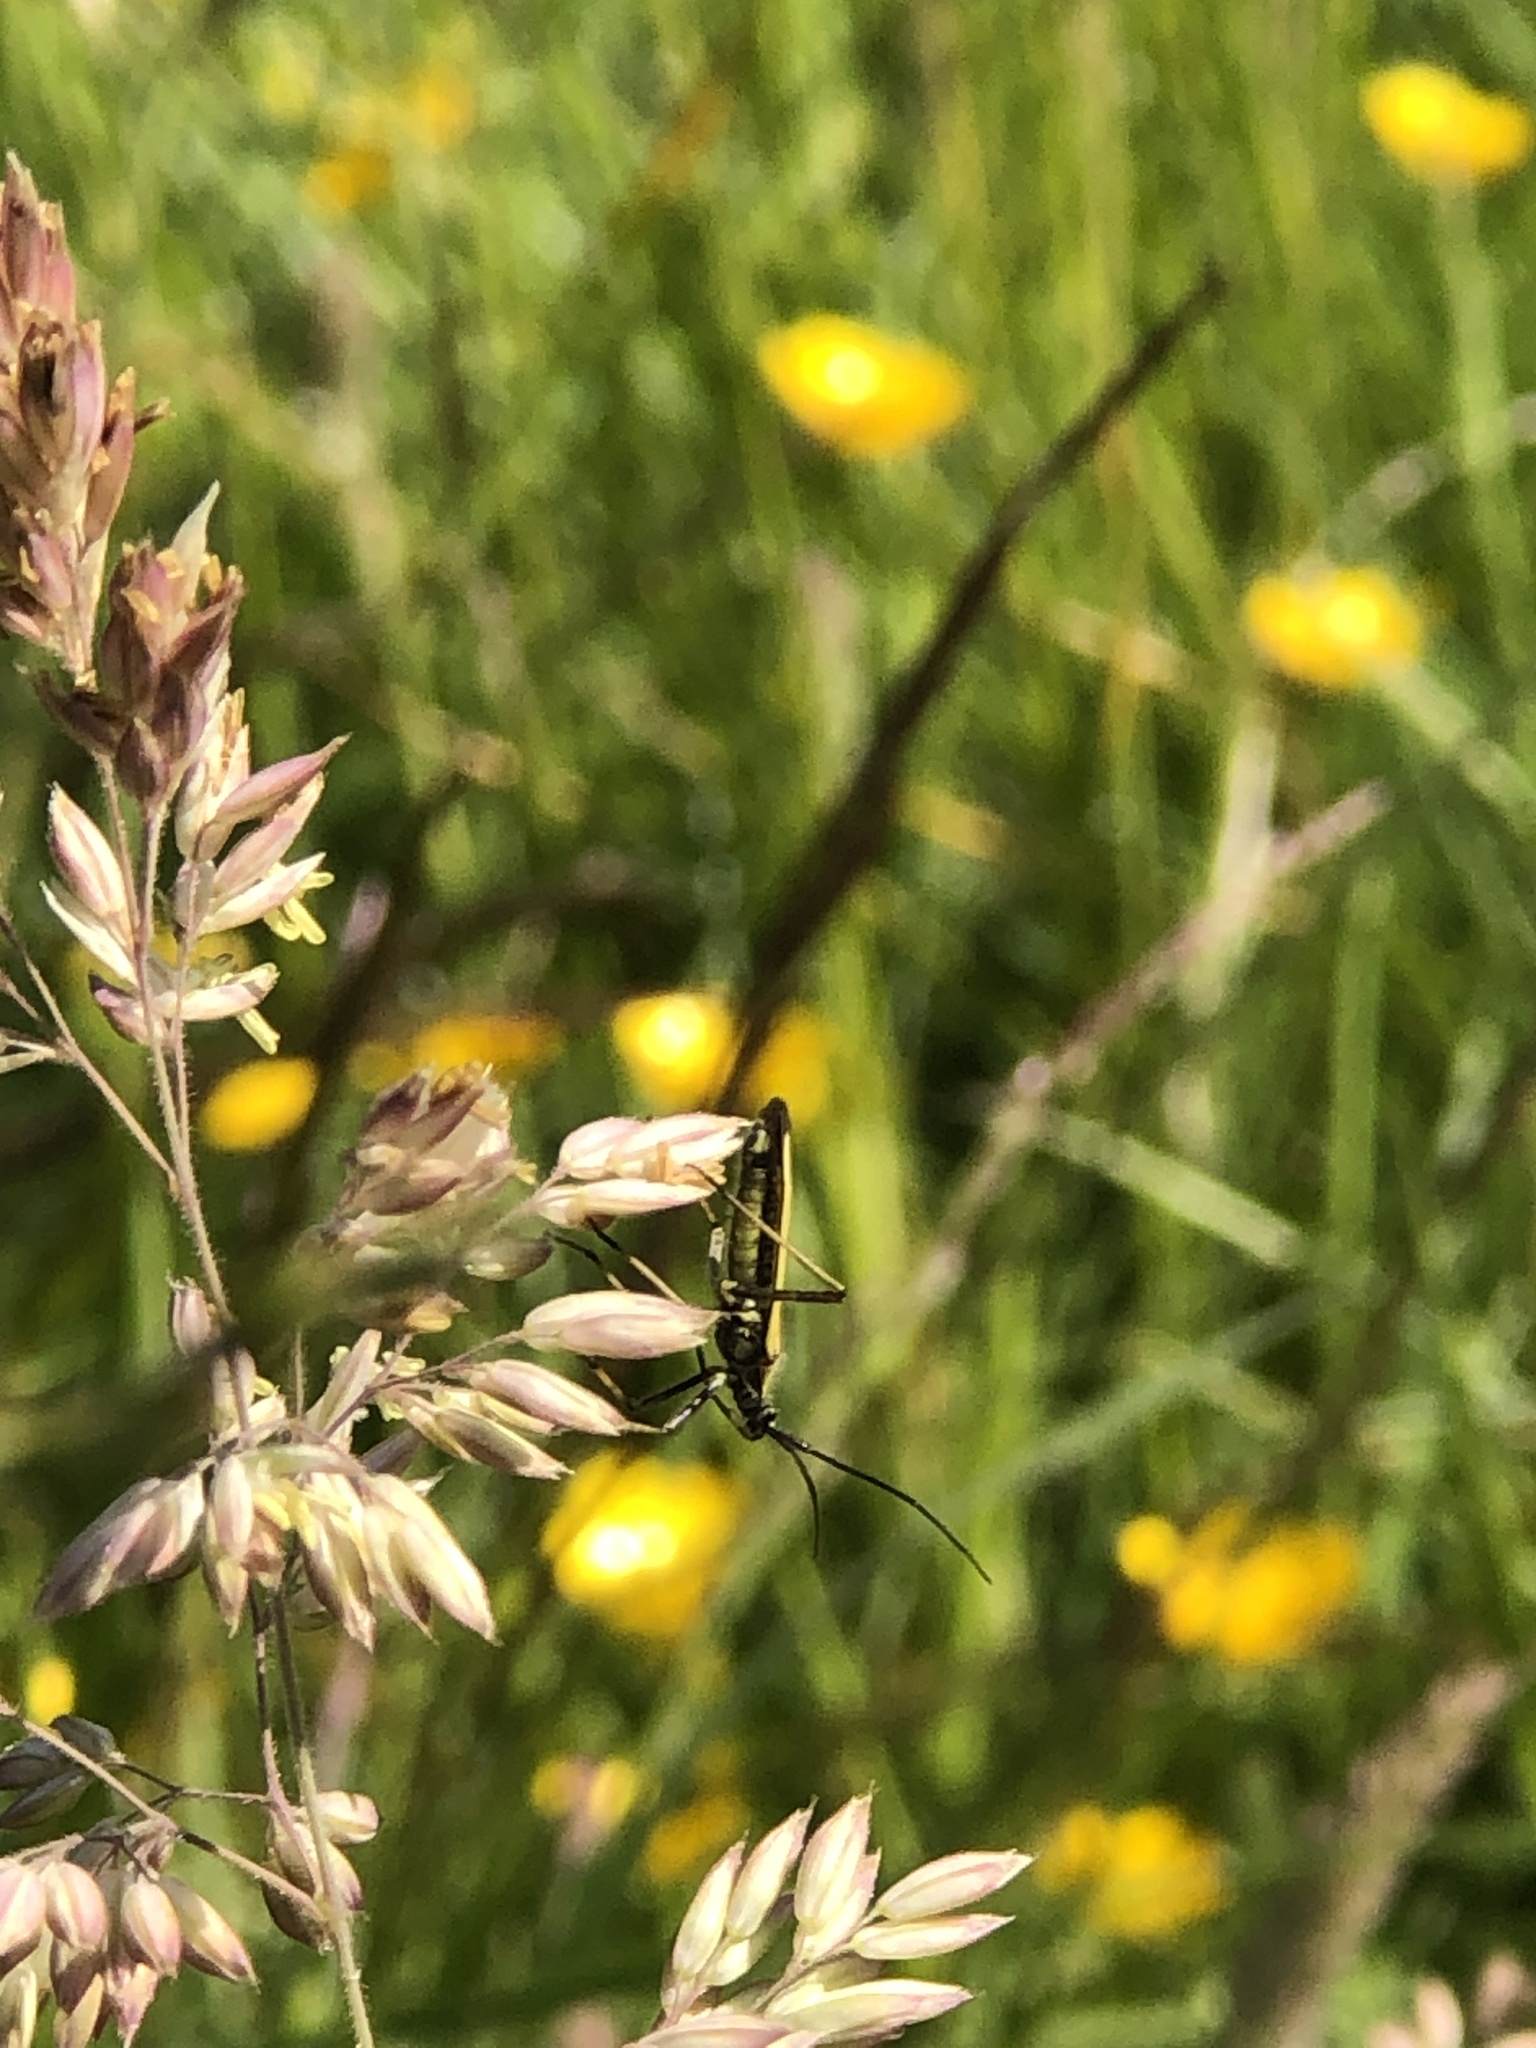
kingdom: Animalia
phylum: Arthropoda
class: Insecta
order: Hemiptera
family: Miridae
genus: Leptopterna
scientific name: Leptopterna dolabrata
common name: Meadow plant bug
